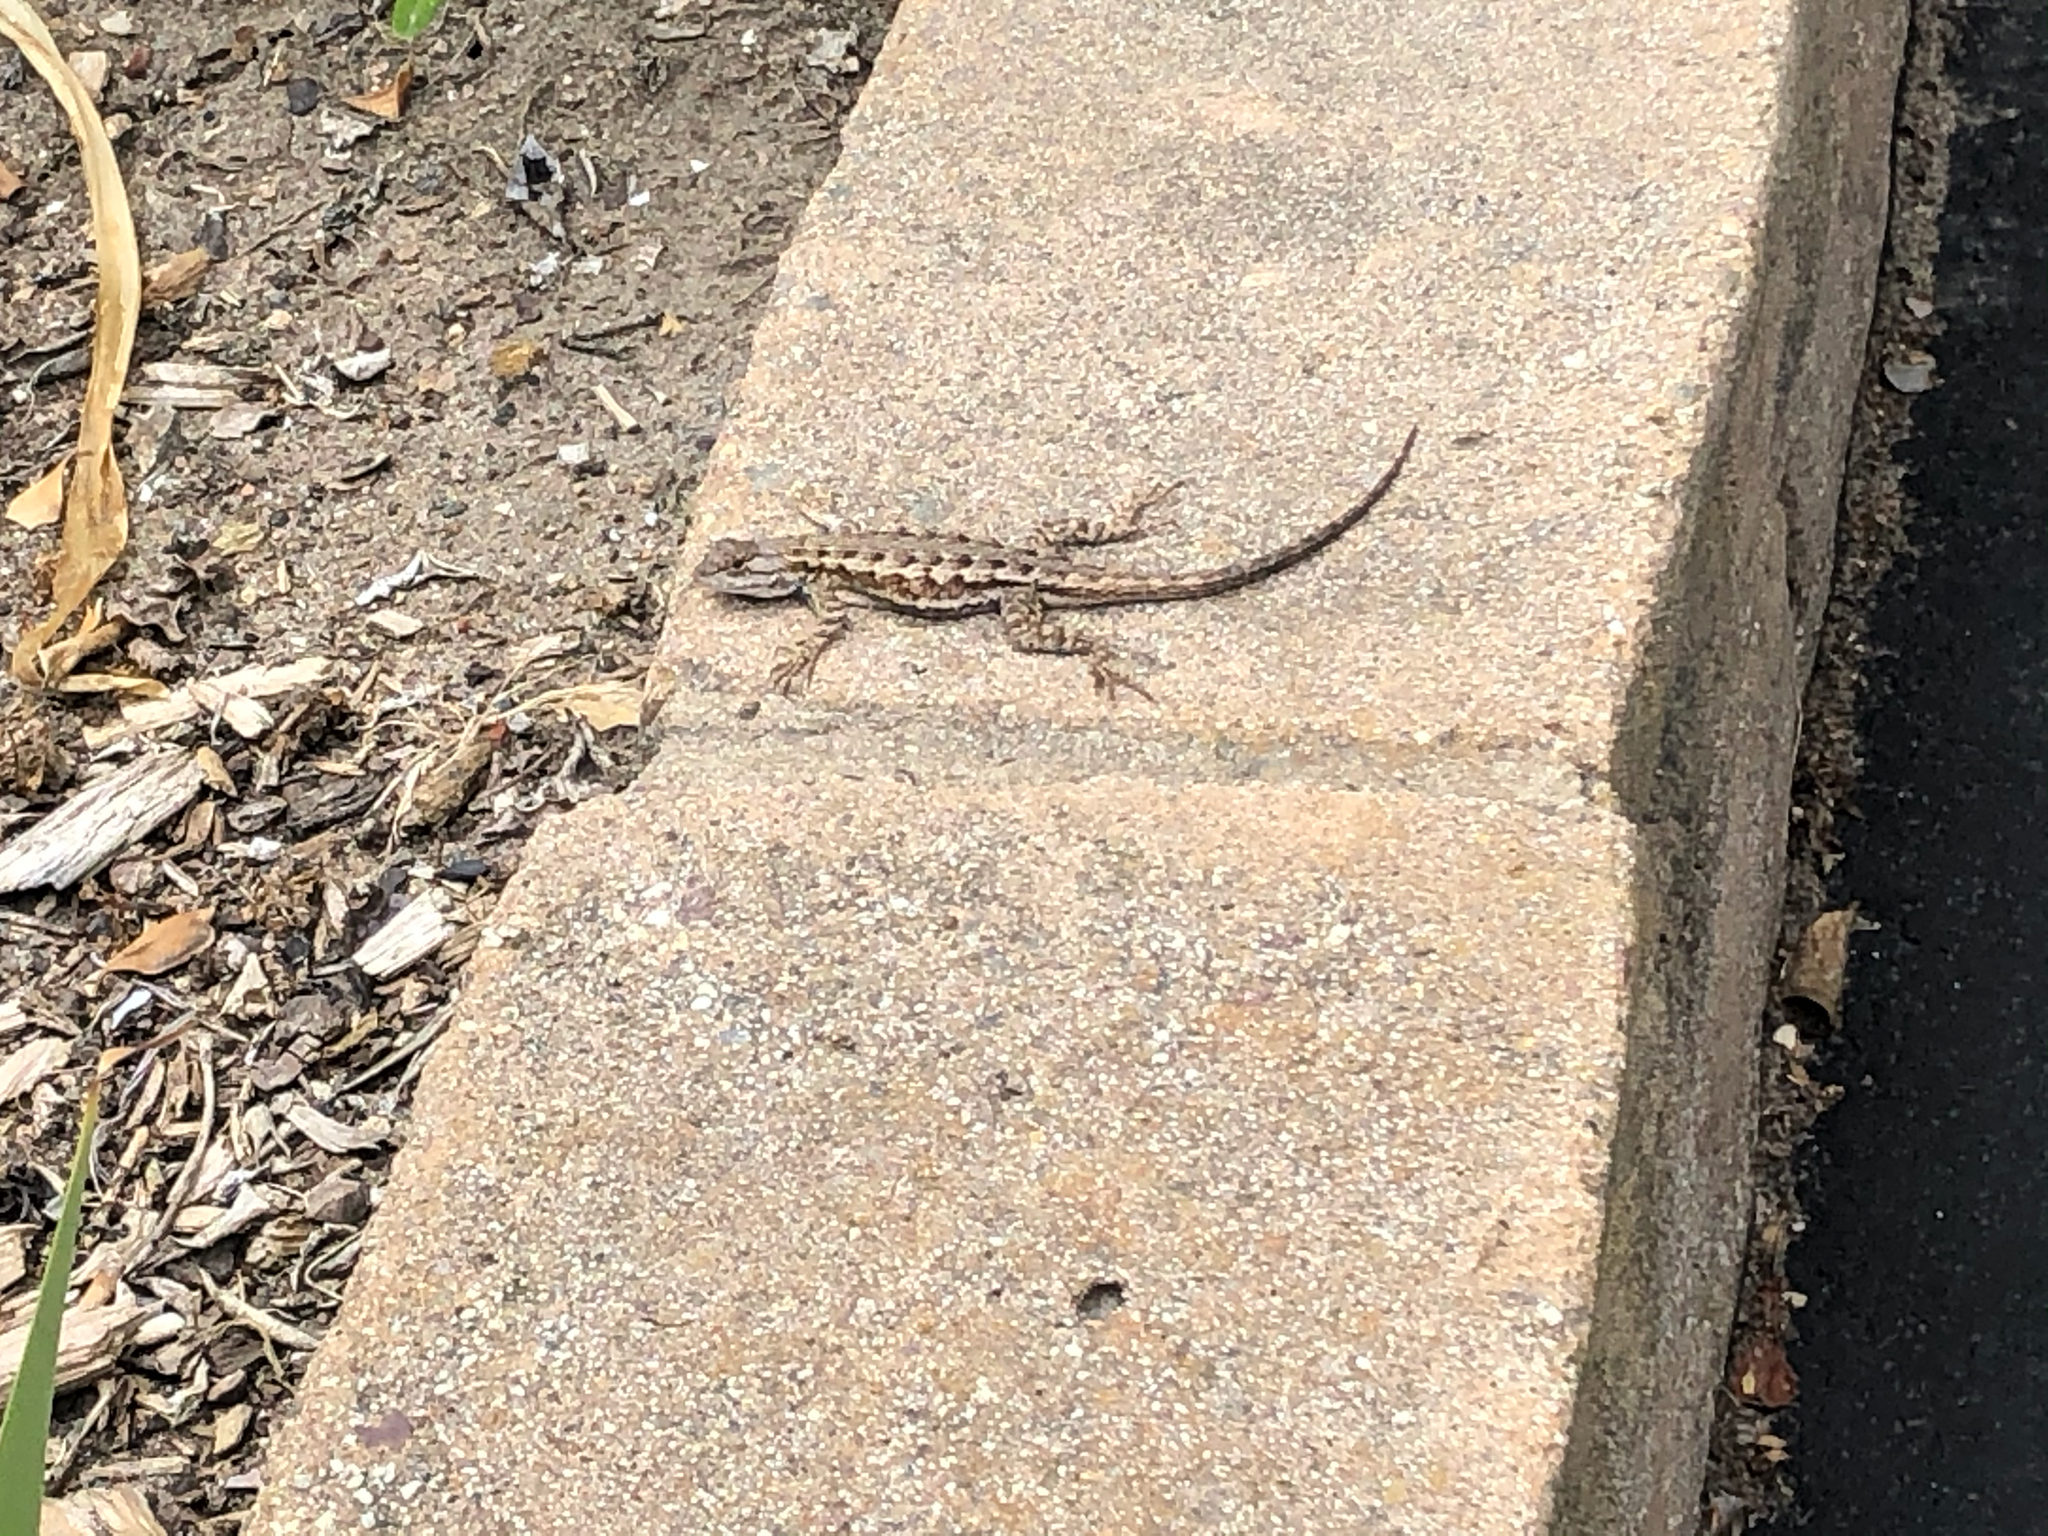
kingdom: Animalia
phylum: Chordata
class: Squamata
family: Phrynosomatidae
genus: Sceloporus
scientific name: Sceloporus occidentalis
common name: Western fence lizard
